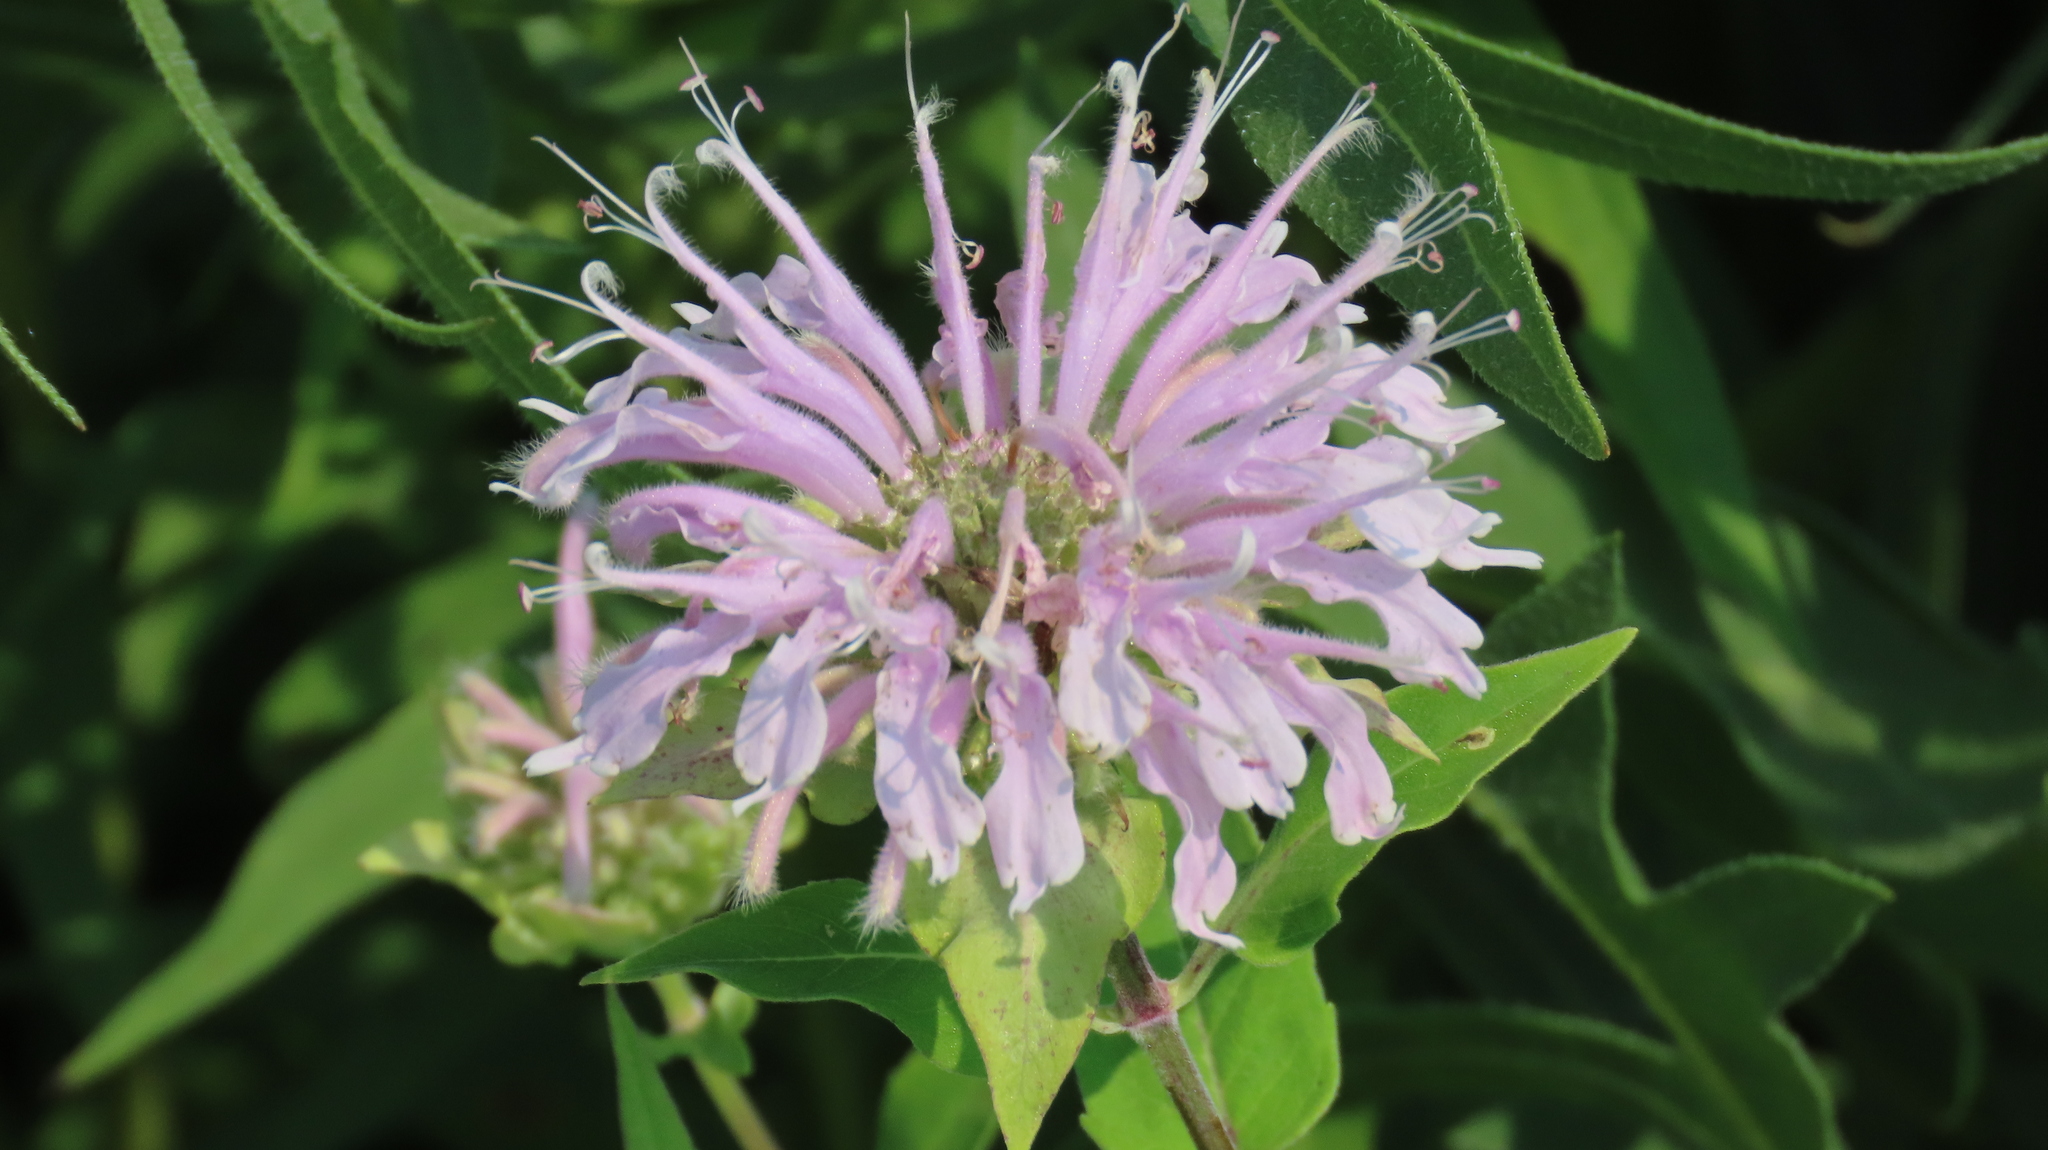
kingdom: Plantae
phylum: Tracheophyta
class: Magnoliopsida
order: Lamiales
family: Lamiaceae
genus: Monarda
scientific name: Monarda fistulosa
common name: Purple beebalm
